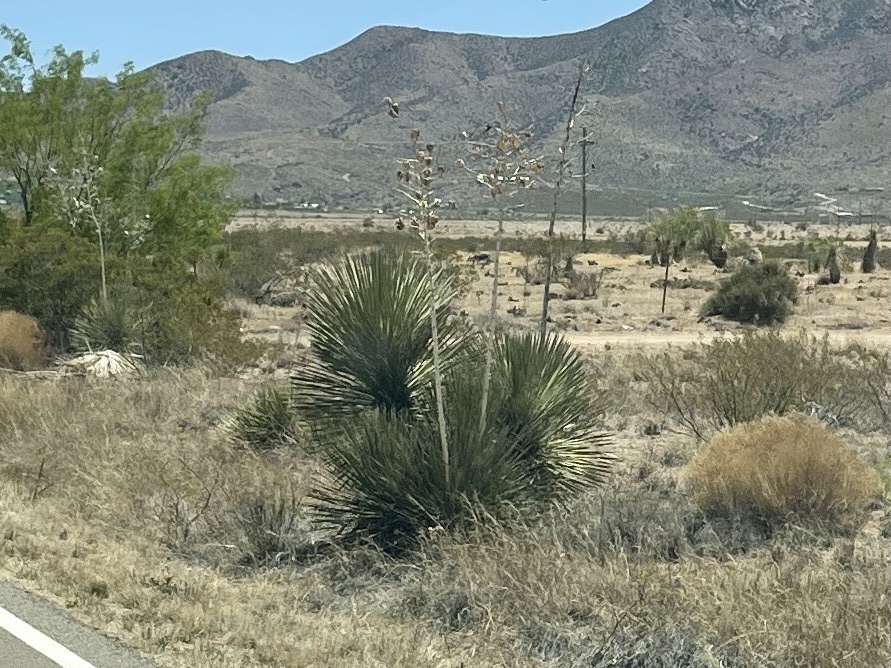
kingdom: Plantae
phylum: Tracheophyta
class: Liliopsida
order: Asparagales
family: Asparagaceae
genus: Yucca
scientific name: Yucca elata
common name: Palmella
